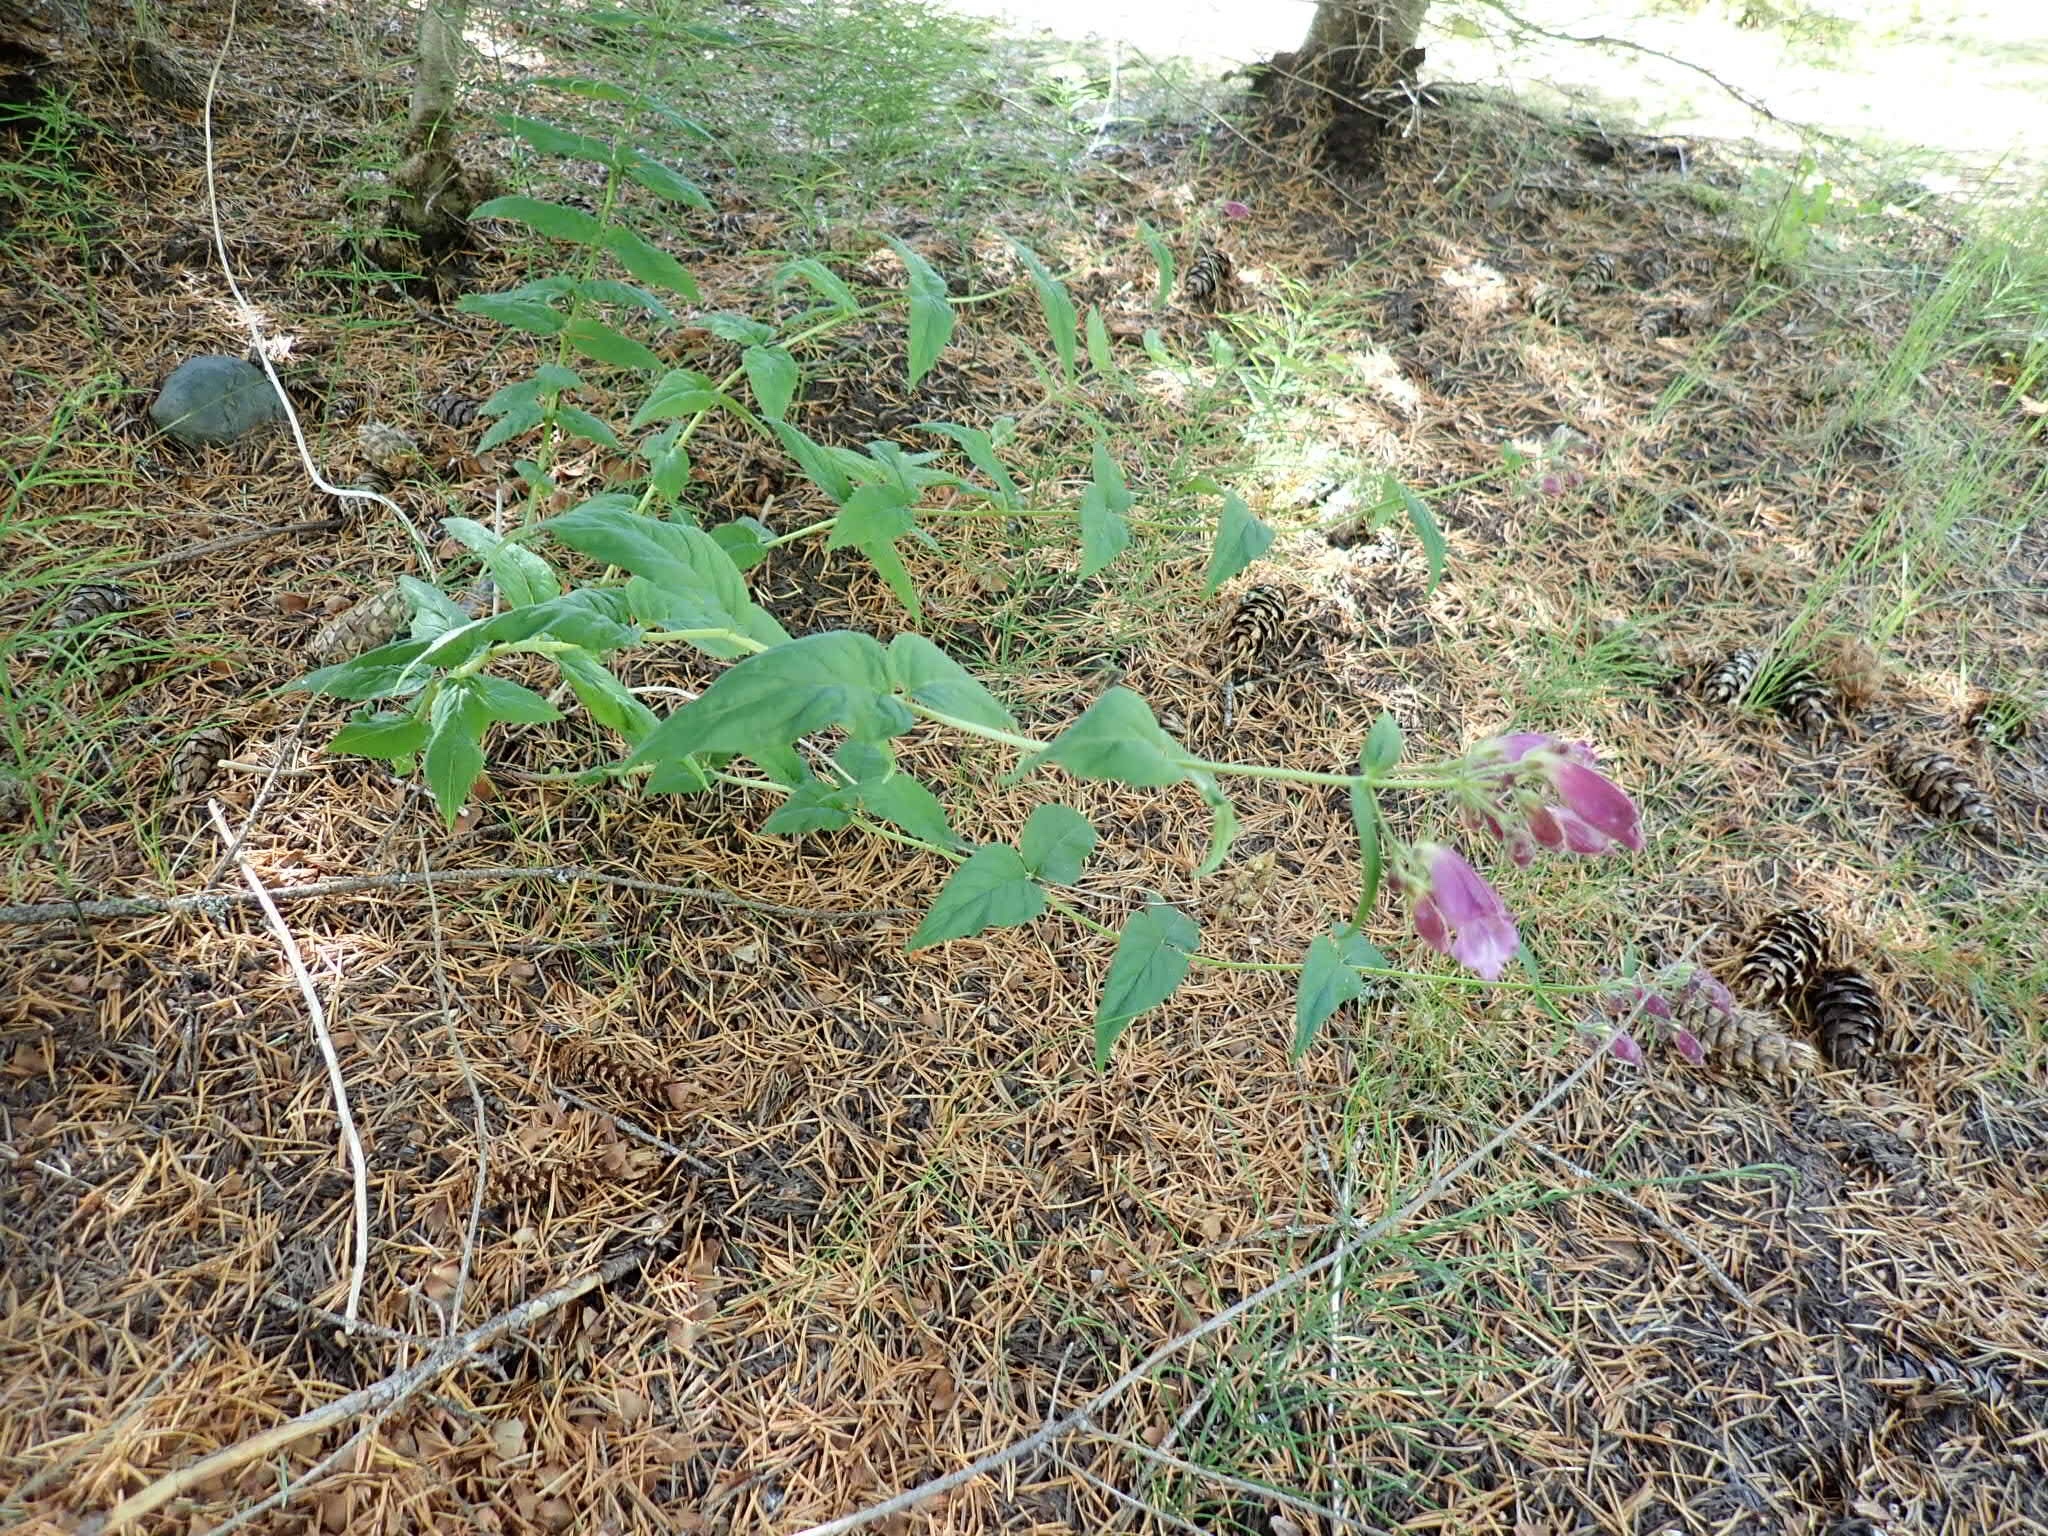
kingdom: Plantae
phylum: Tracheophyta
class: Magnoliopsida
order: Lamiales
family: Plantaginaceae
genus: Nothochelone
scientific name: Nothochelone nemorosa
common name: Woodland beardtongue
